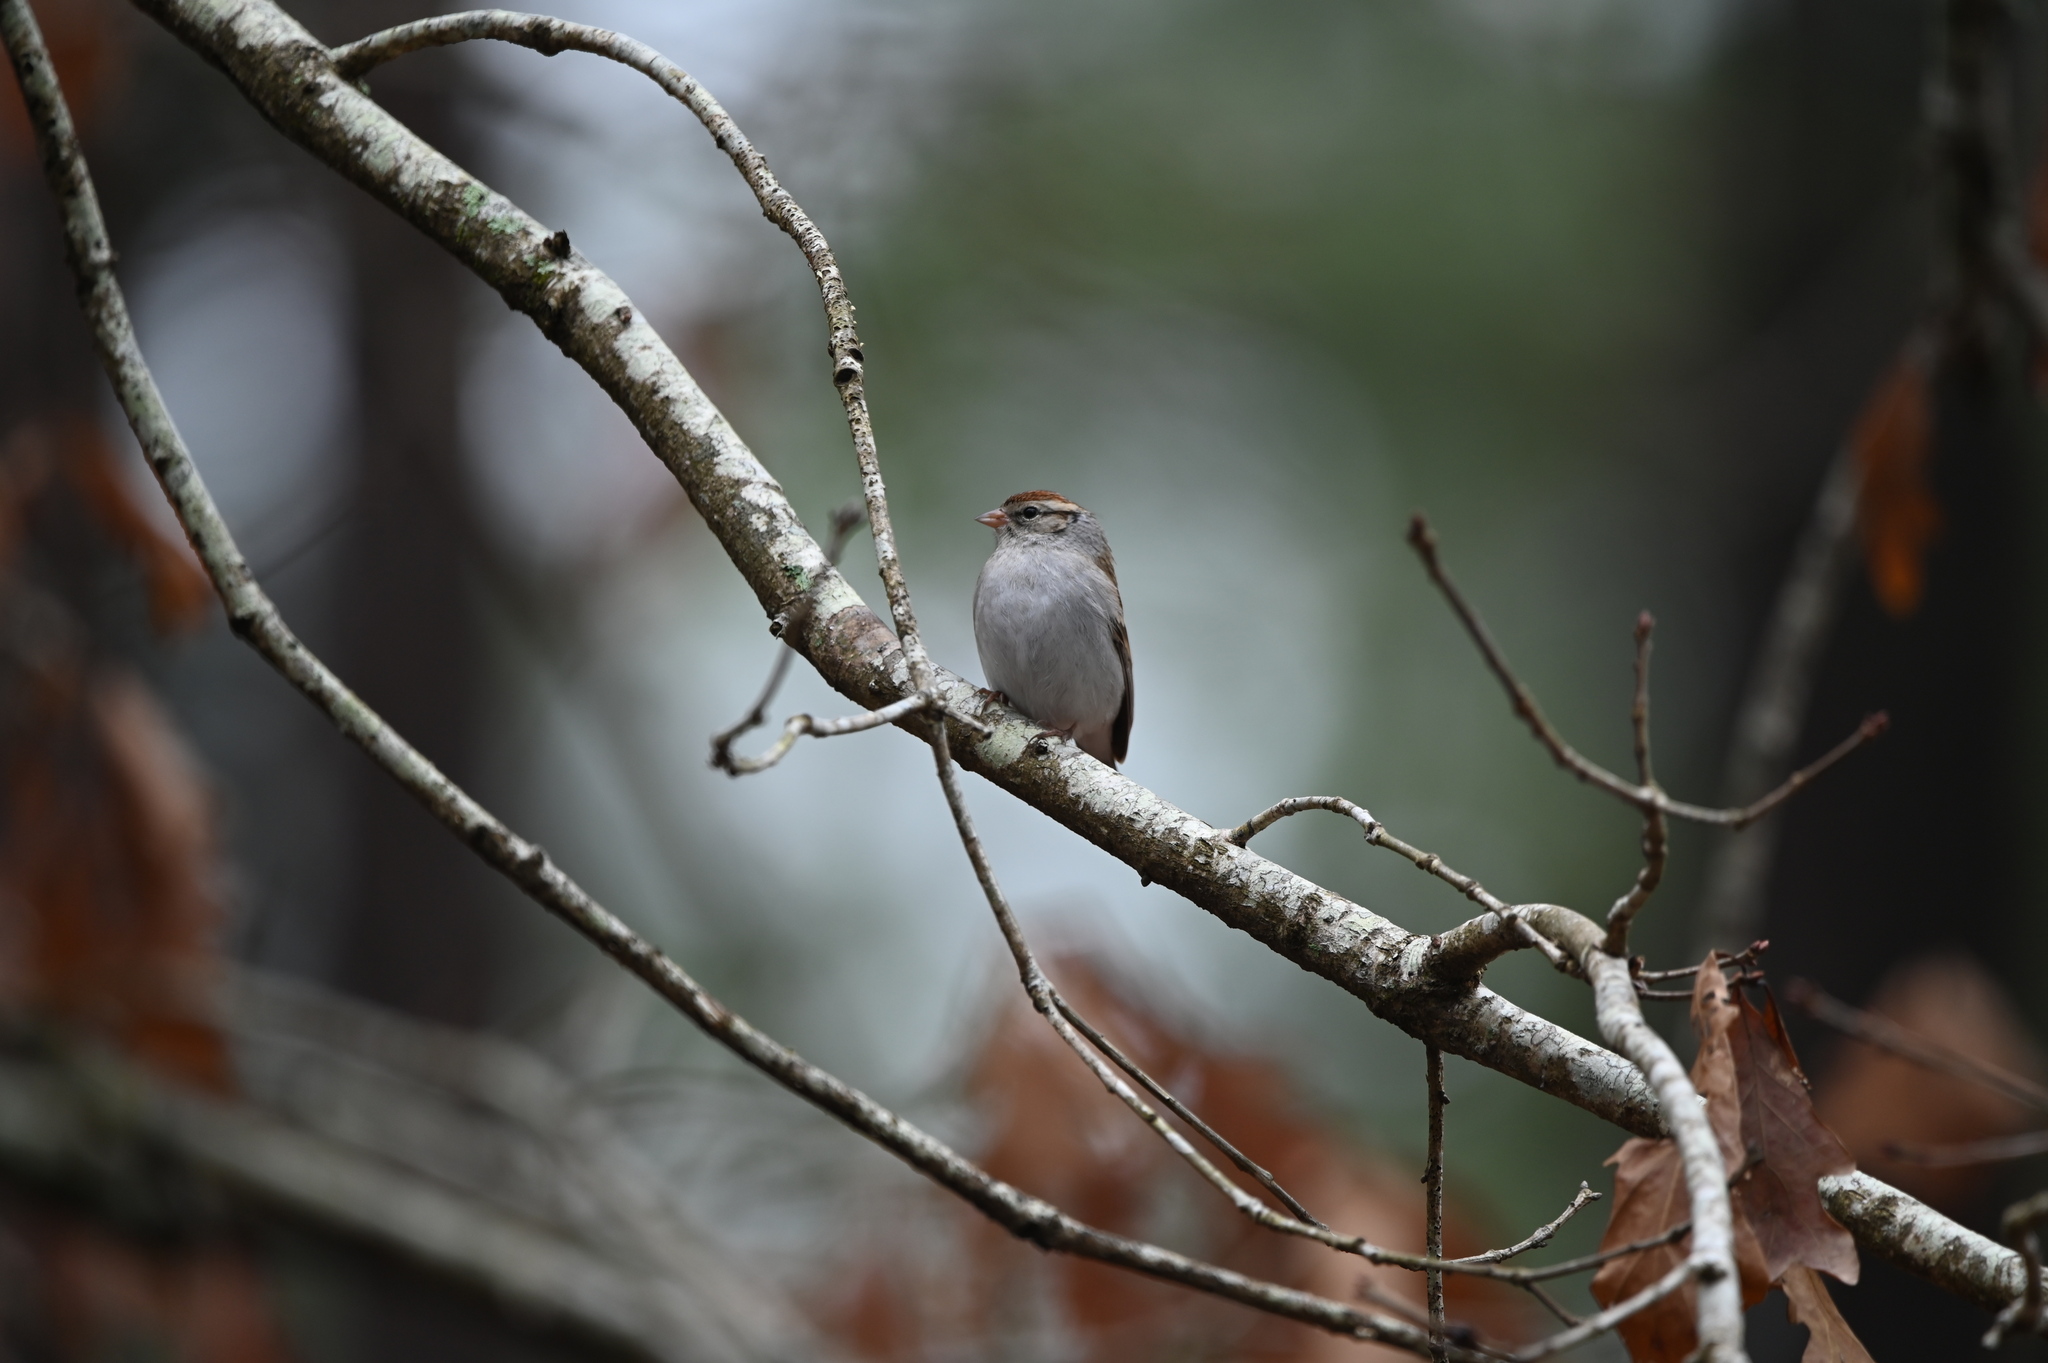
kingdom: Animalia
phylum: Chordata
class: Aves
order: Passeriformes
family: Passerellidae
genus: Spizella
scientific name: Spizella passerina
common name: Chipping sparrow
